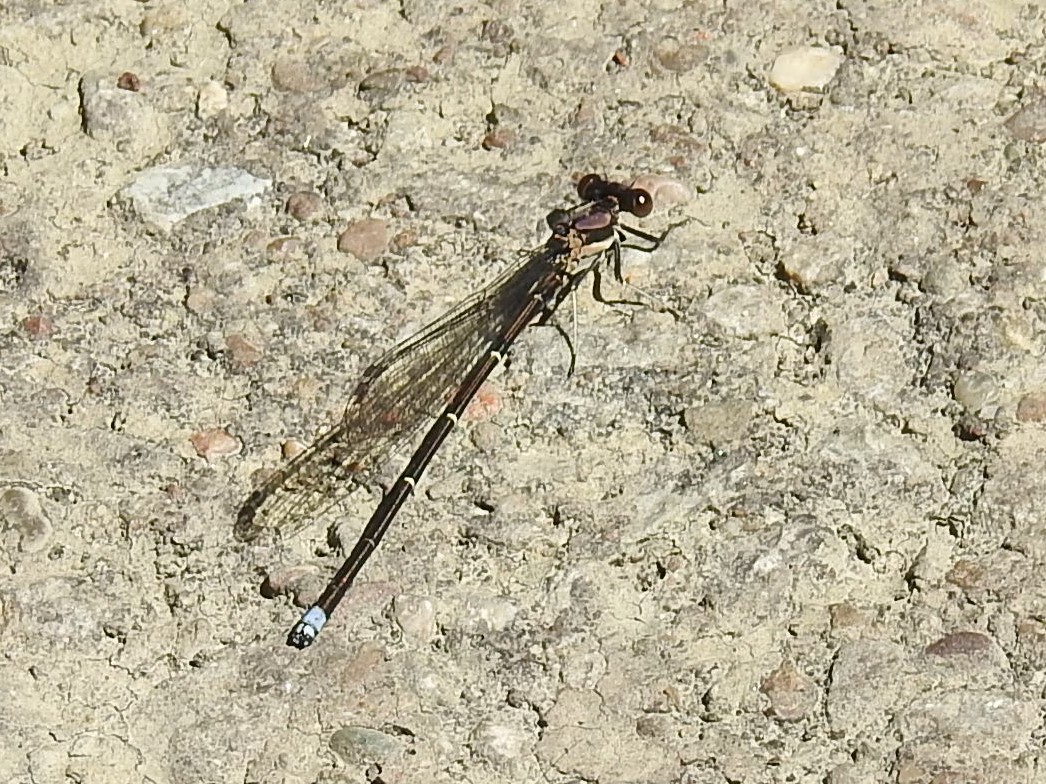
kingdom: Animalia
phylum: Arthropoda
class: Insecta
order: Odonata
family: Coenagrionidae
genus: Argia
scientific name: Argia tibialis
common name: Blue-tipped dancer
